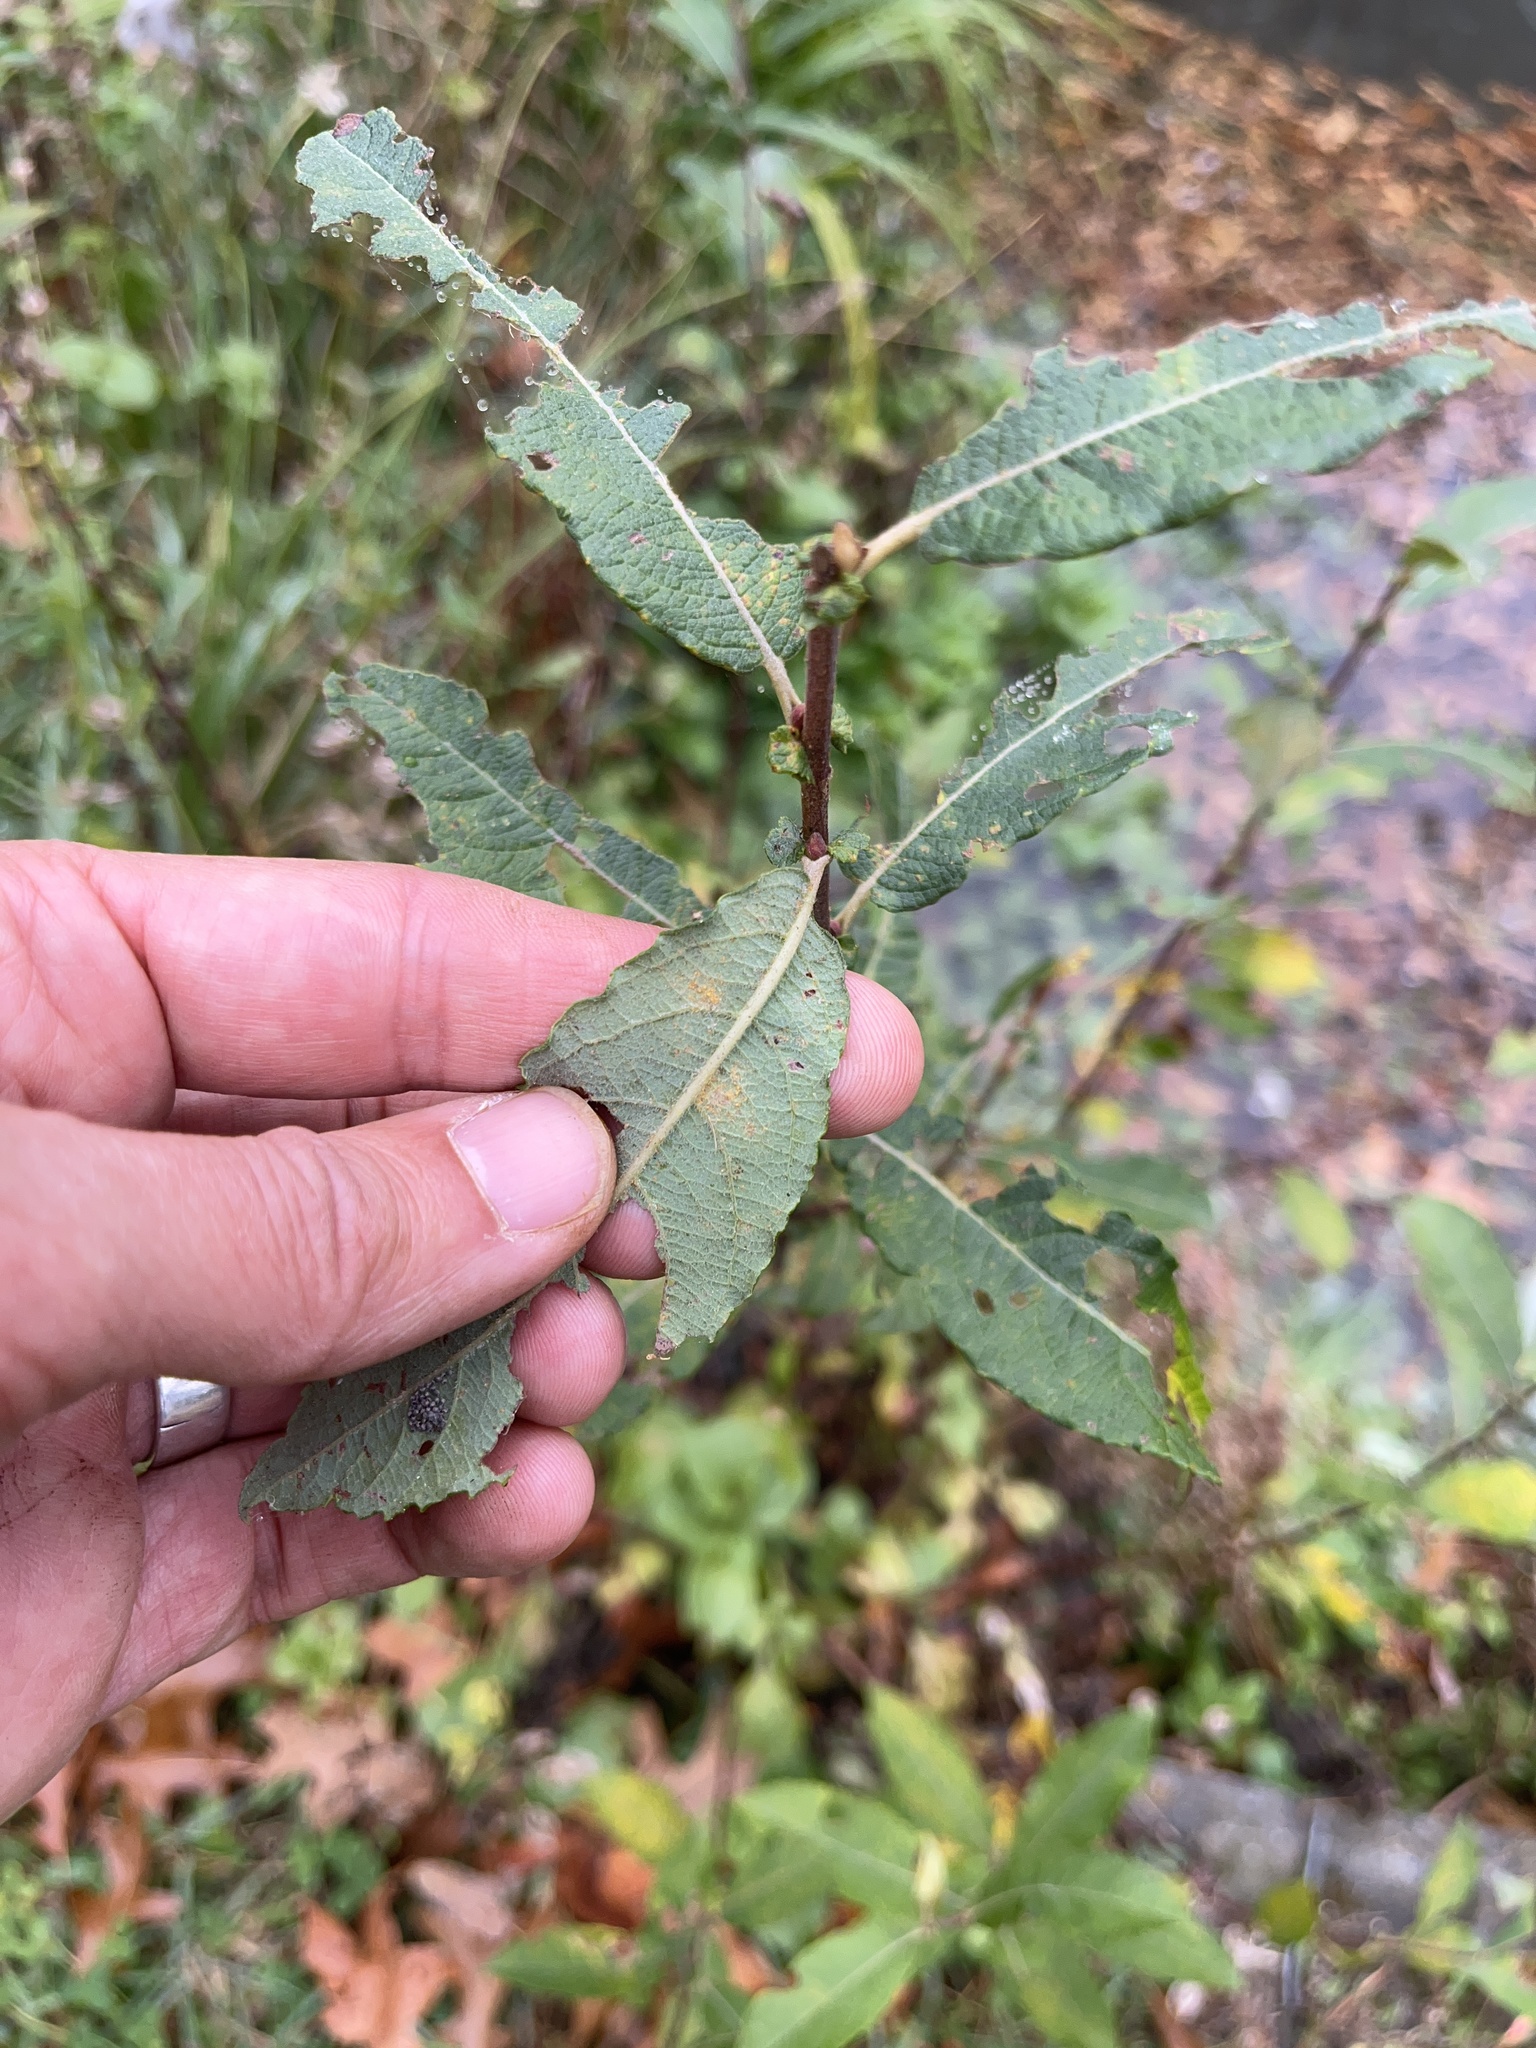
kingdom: Plantae
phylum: Tracheophyta
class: Magnoliopsida
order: Malpighiales
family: Salicaceae
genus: Salix
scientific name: Salix cinerea
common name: Common sallow
